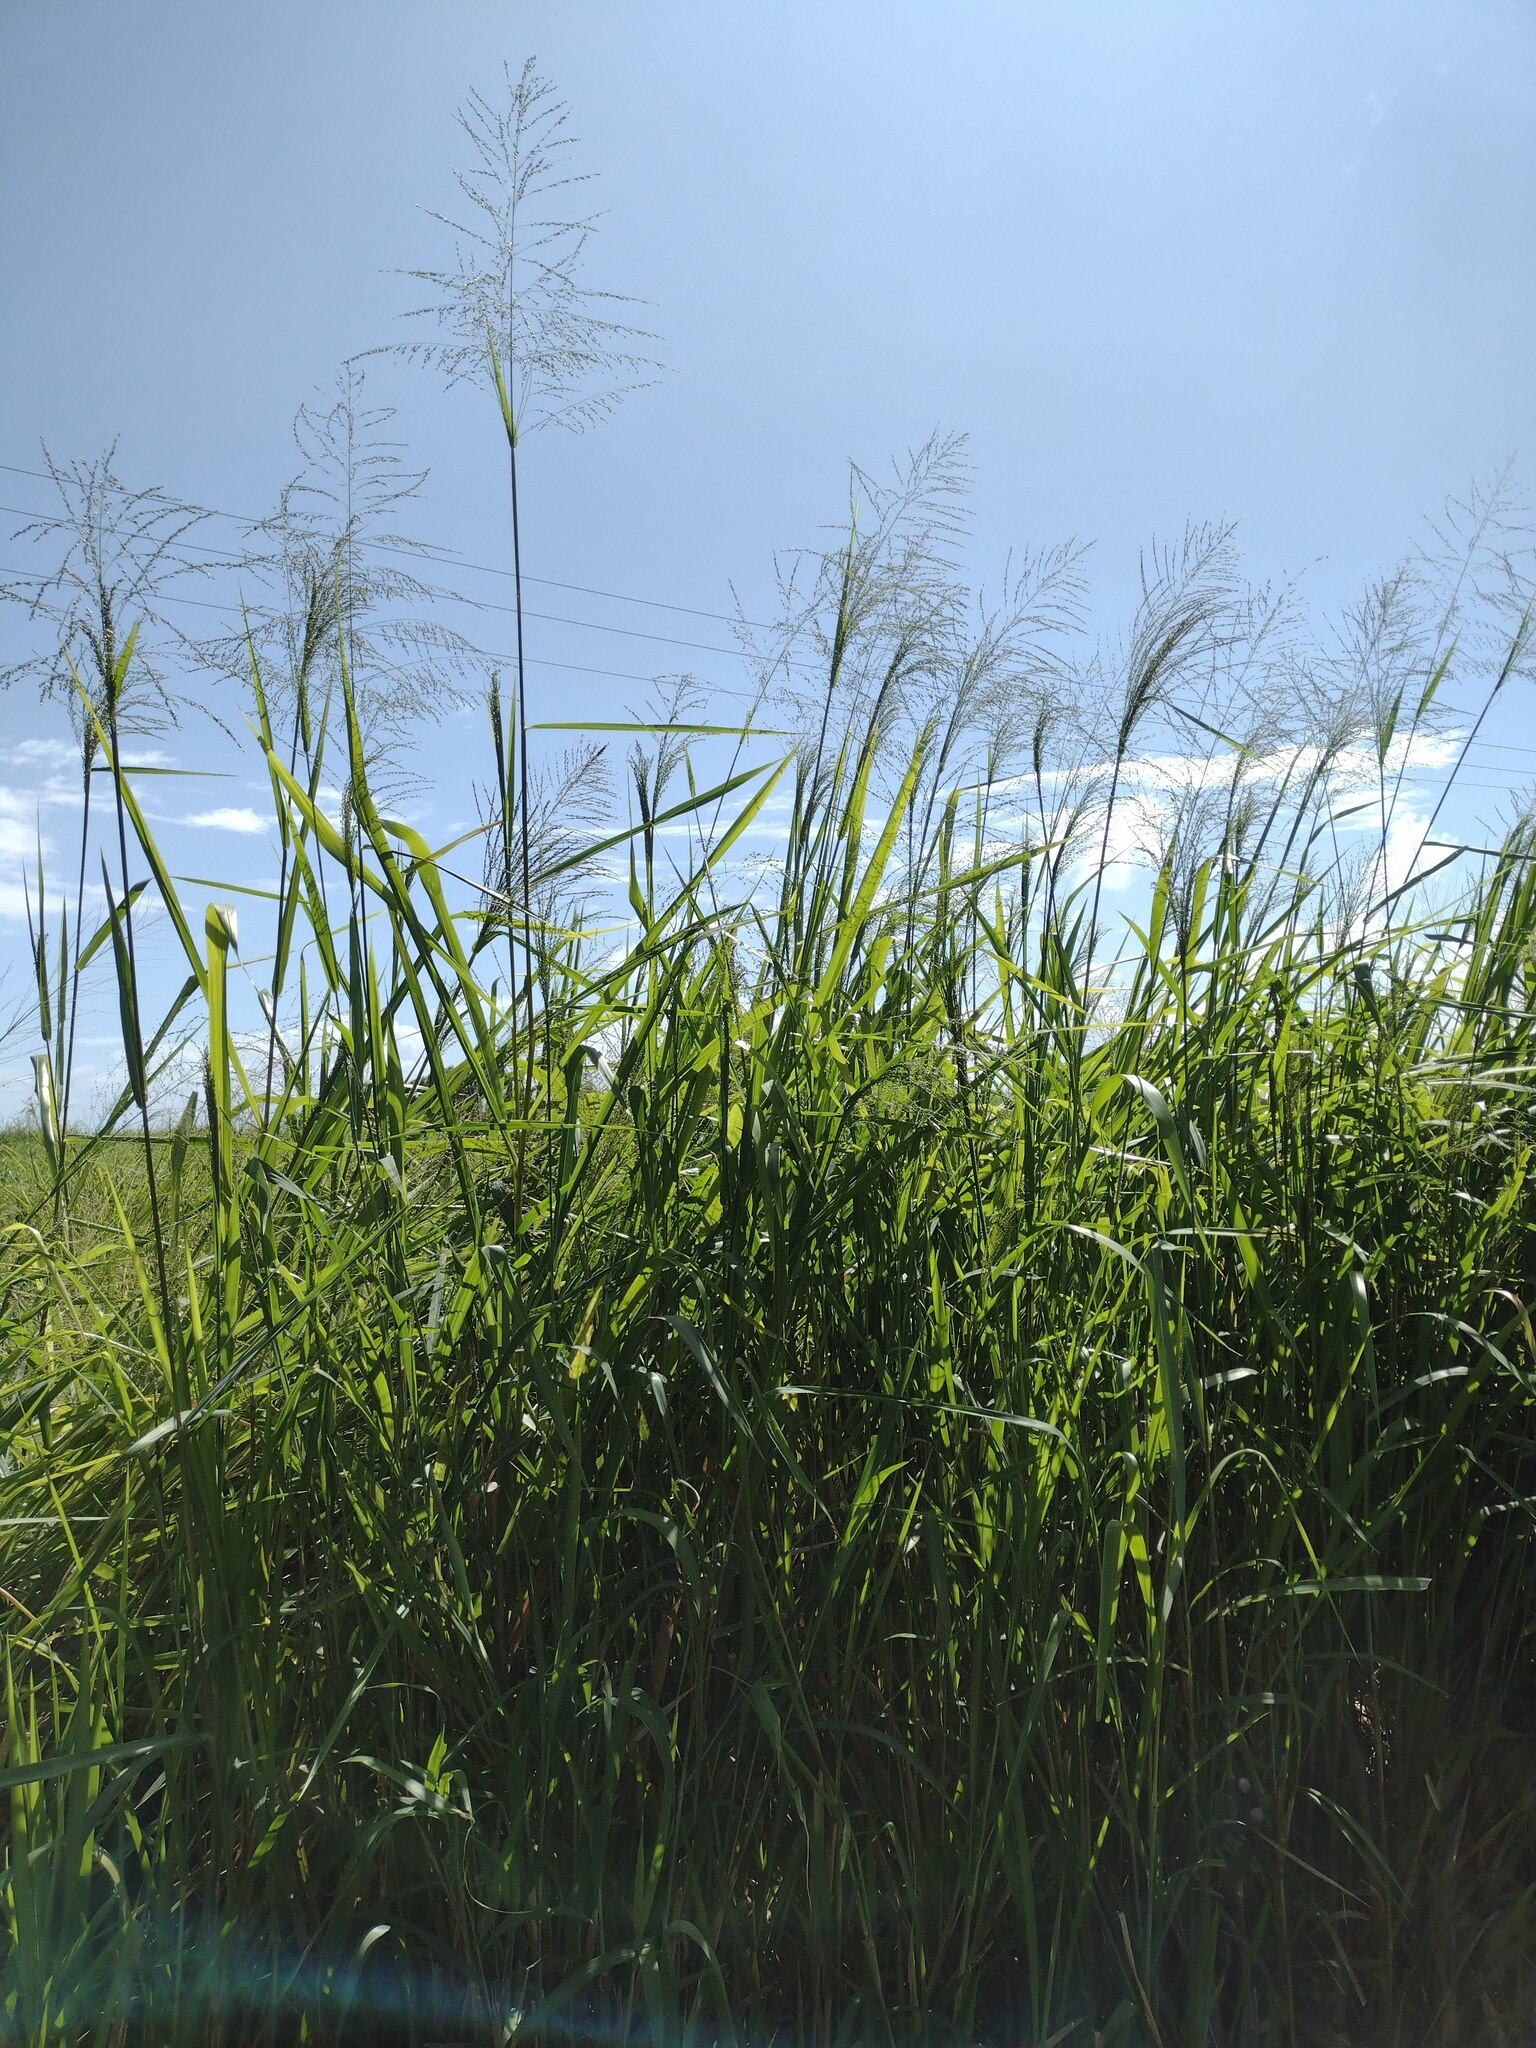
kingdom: Plantae
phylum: Tracheophyta
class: Liliopsida
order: Poales
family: Poaceae
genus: Megathyrsus
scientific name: Megathyrsus maximus
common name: Guineagrass
